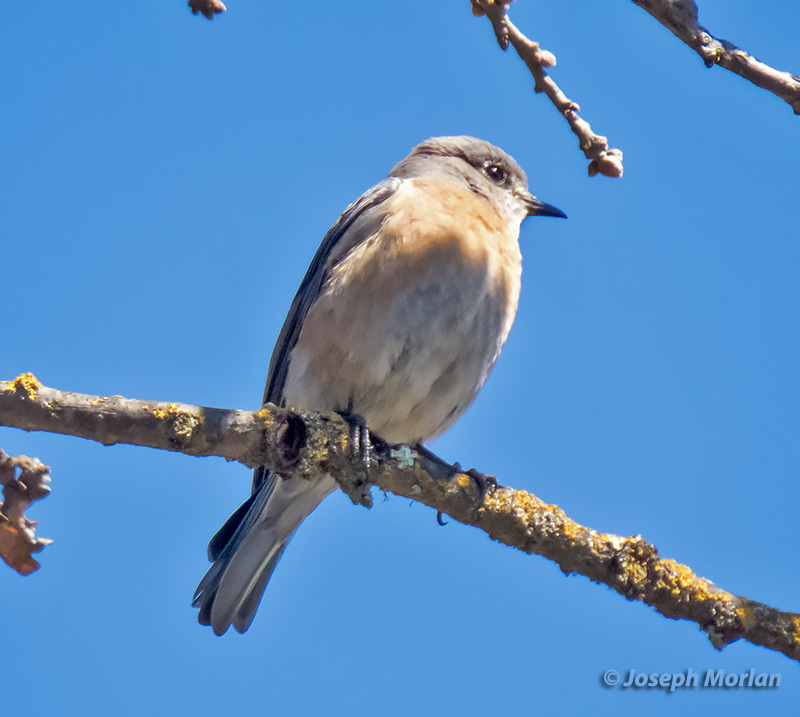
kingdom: Animalia
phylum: Chordata
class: Aves
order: Passeriformes
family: Turdidae
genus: Sialia
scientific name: Sialia mexicana
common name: Western bluebird
